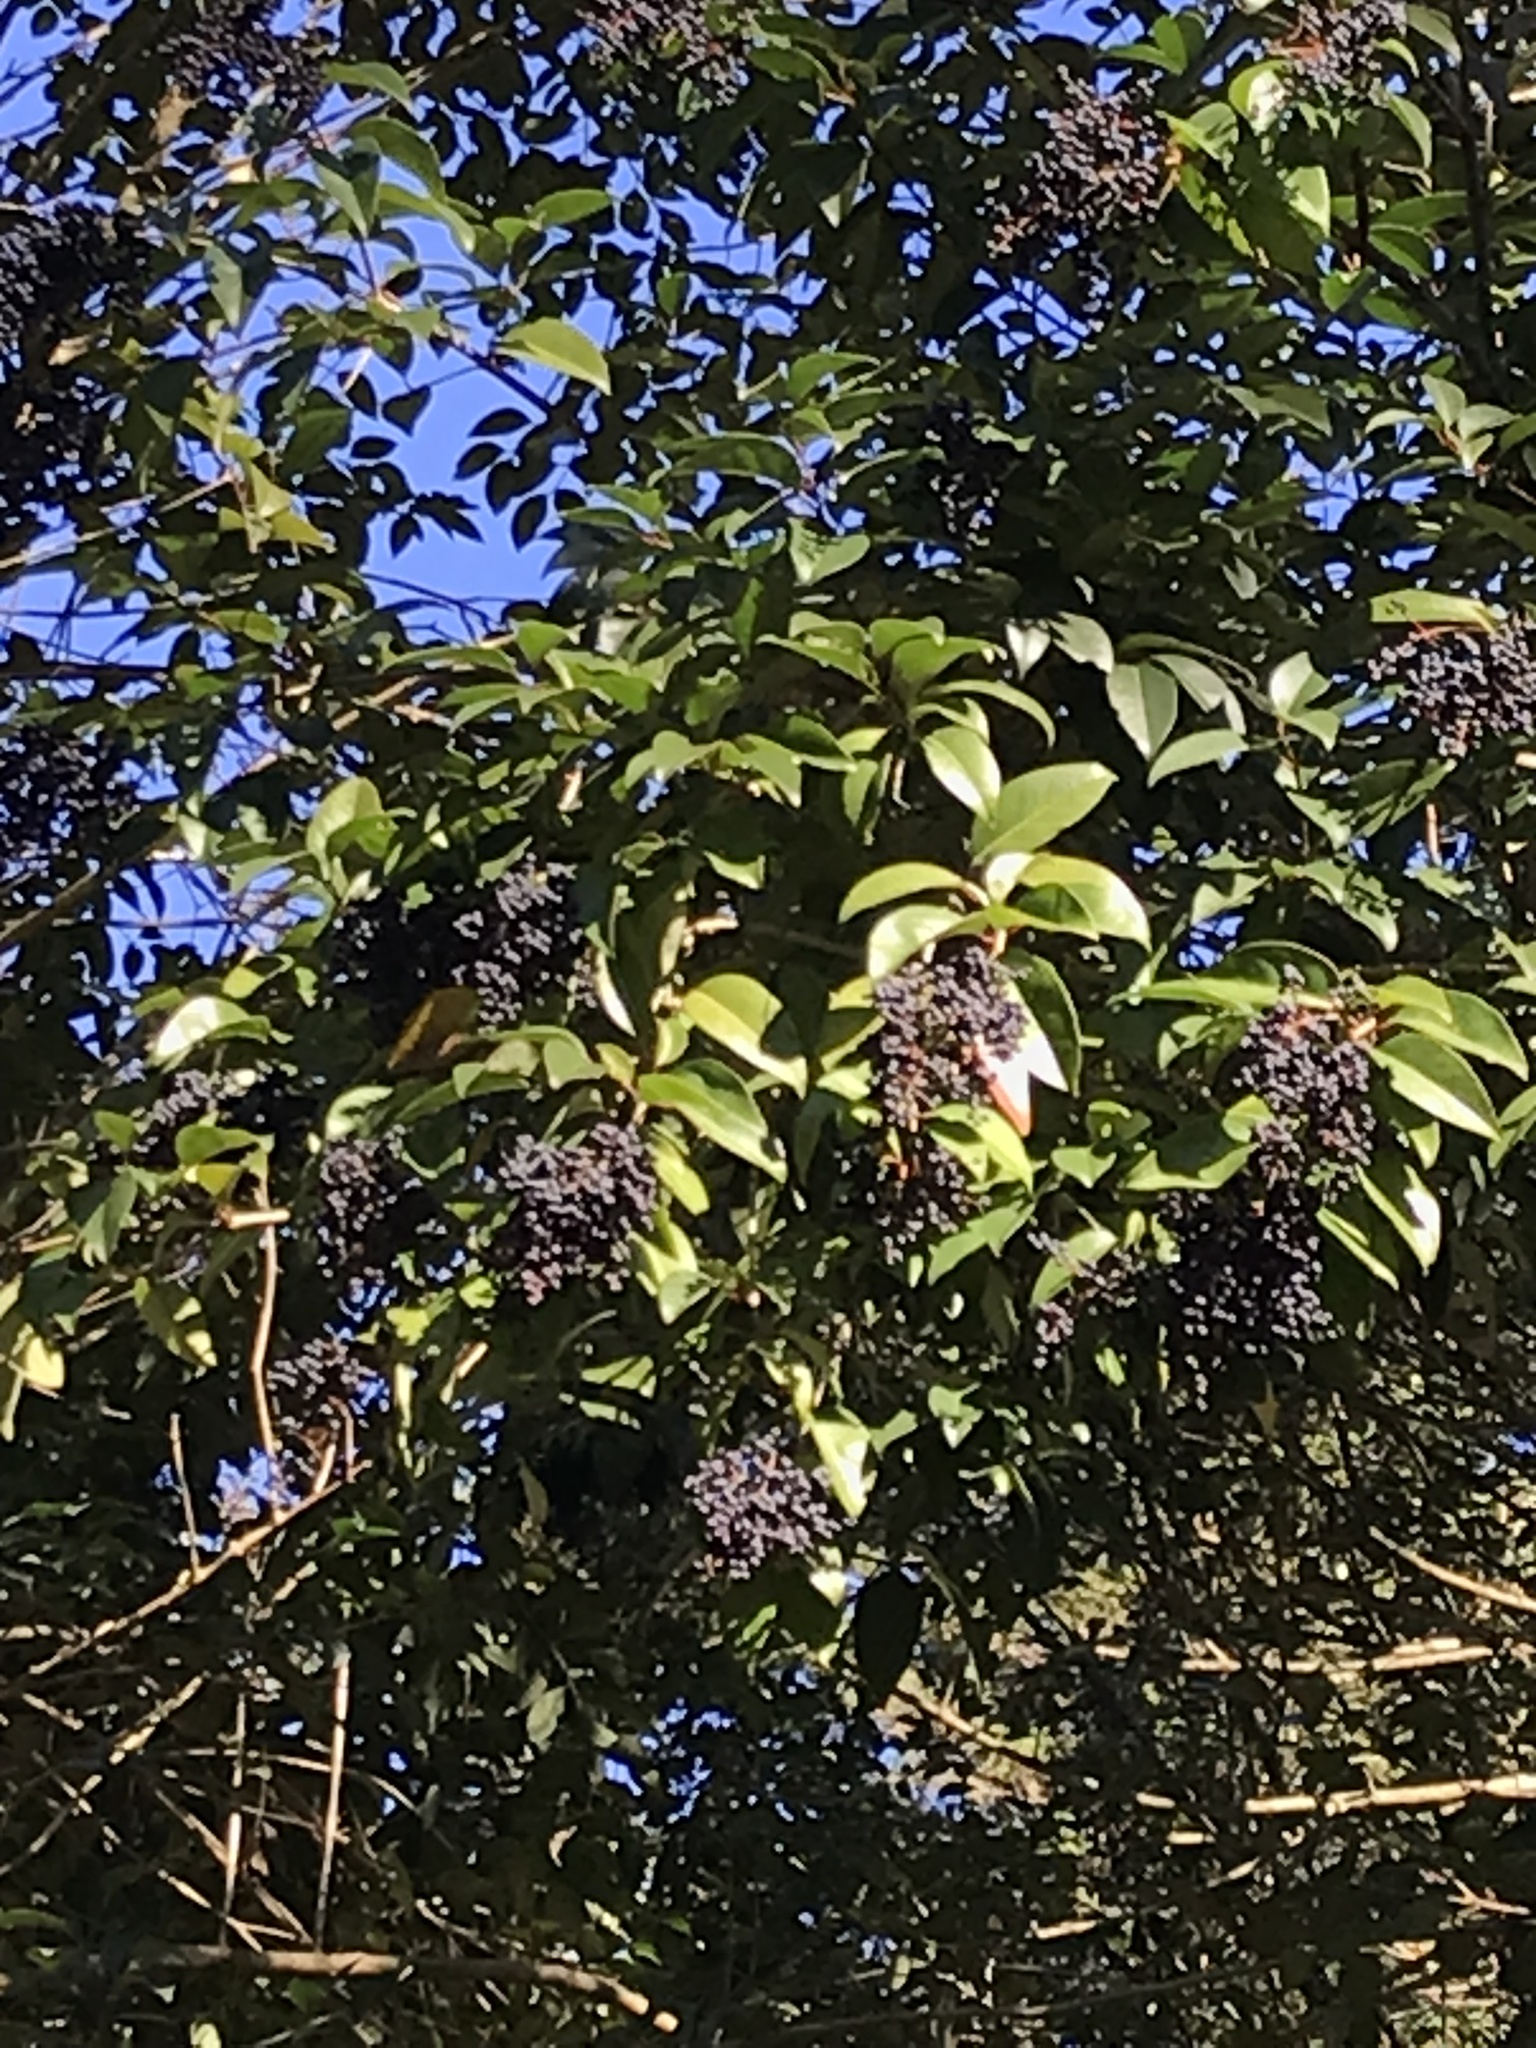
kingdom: Plantae
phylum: Tracheophyta
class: Magnoliopsida
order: Lamiales
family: Oleaceae
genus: Ligustrum
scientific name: Ligustrum lucidum
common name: Glossy privet
